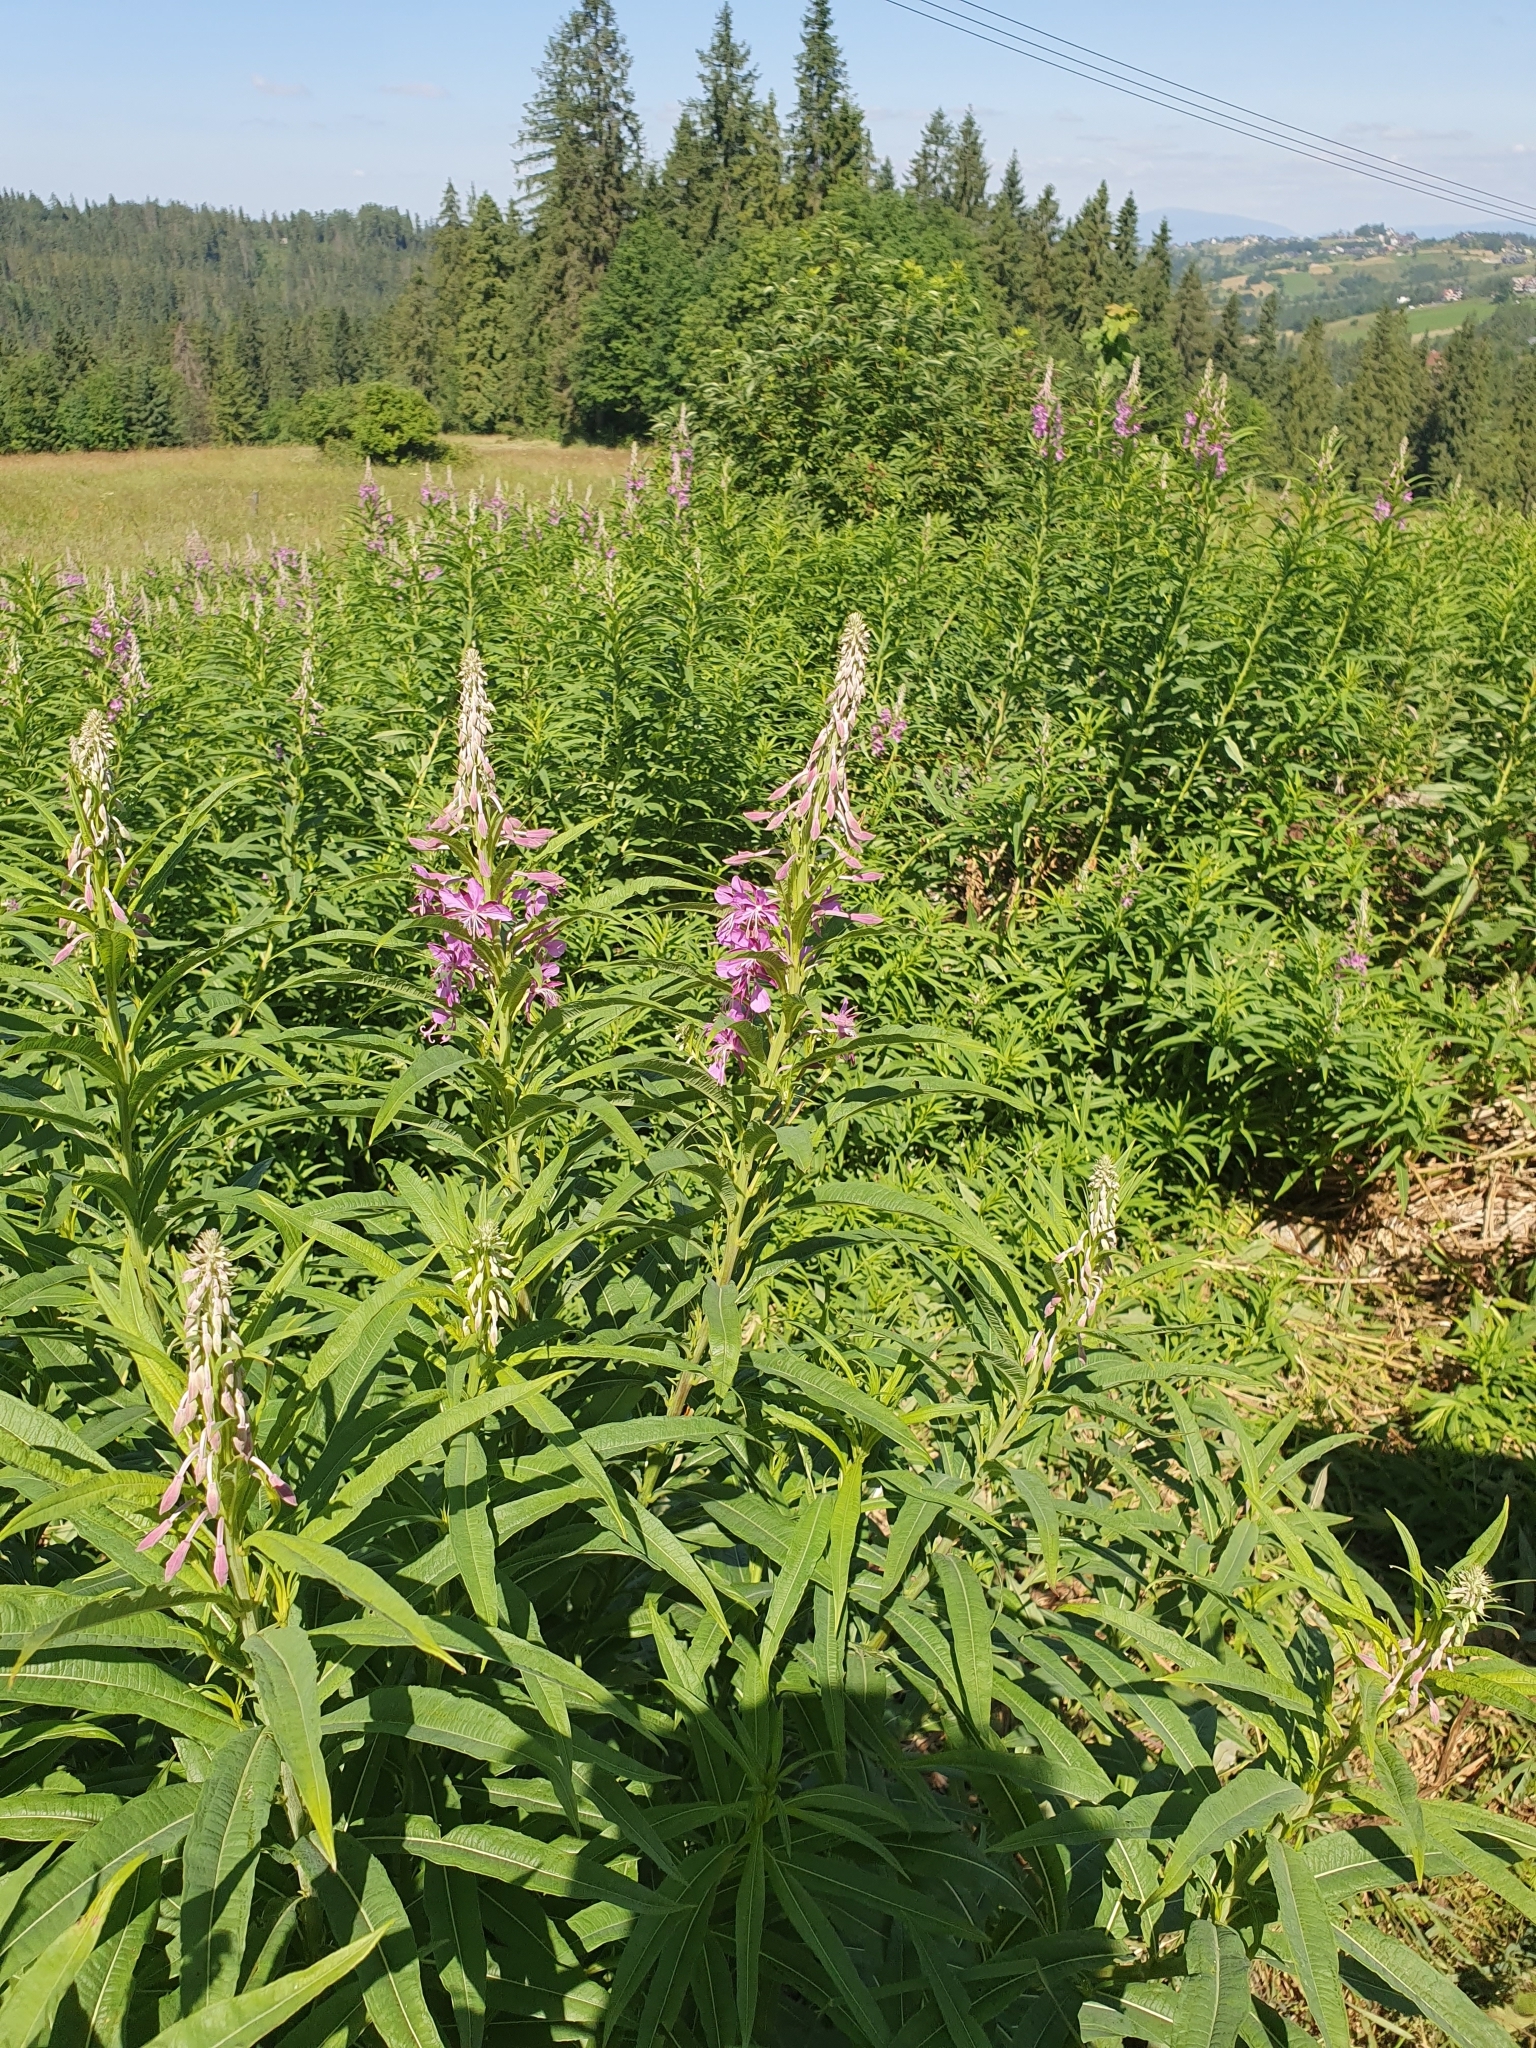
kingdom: Plantae
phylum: Tracheophyta
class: Magnoliopsida
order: Myrtales
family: Onagraceae
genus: Chamaenerion
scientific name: Chamaenerion angustifolium
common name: Fireweed
